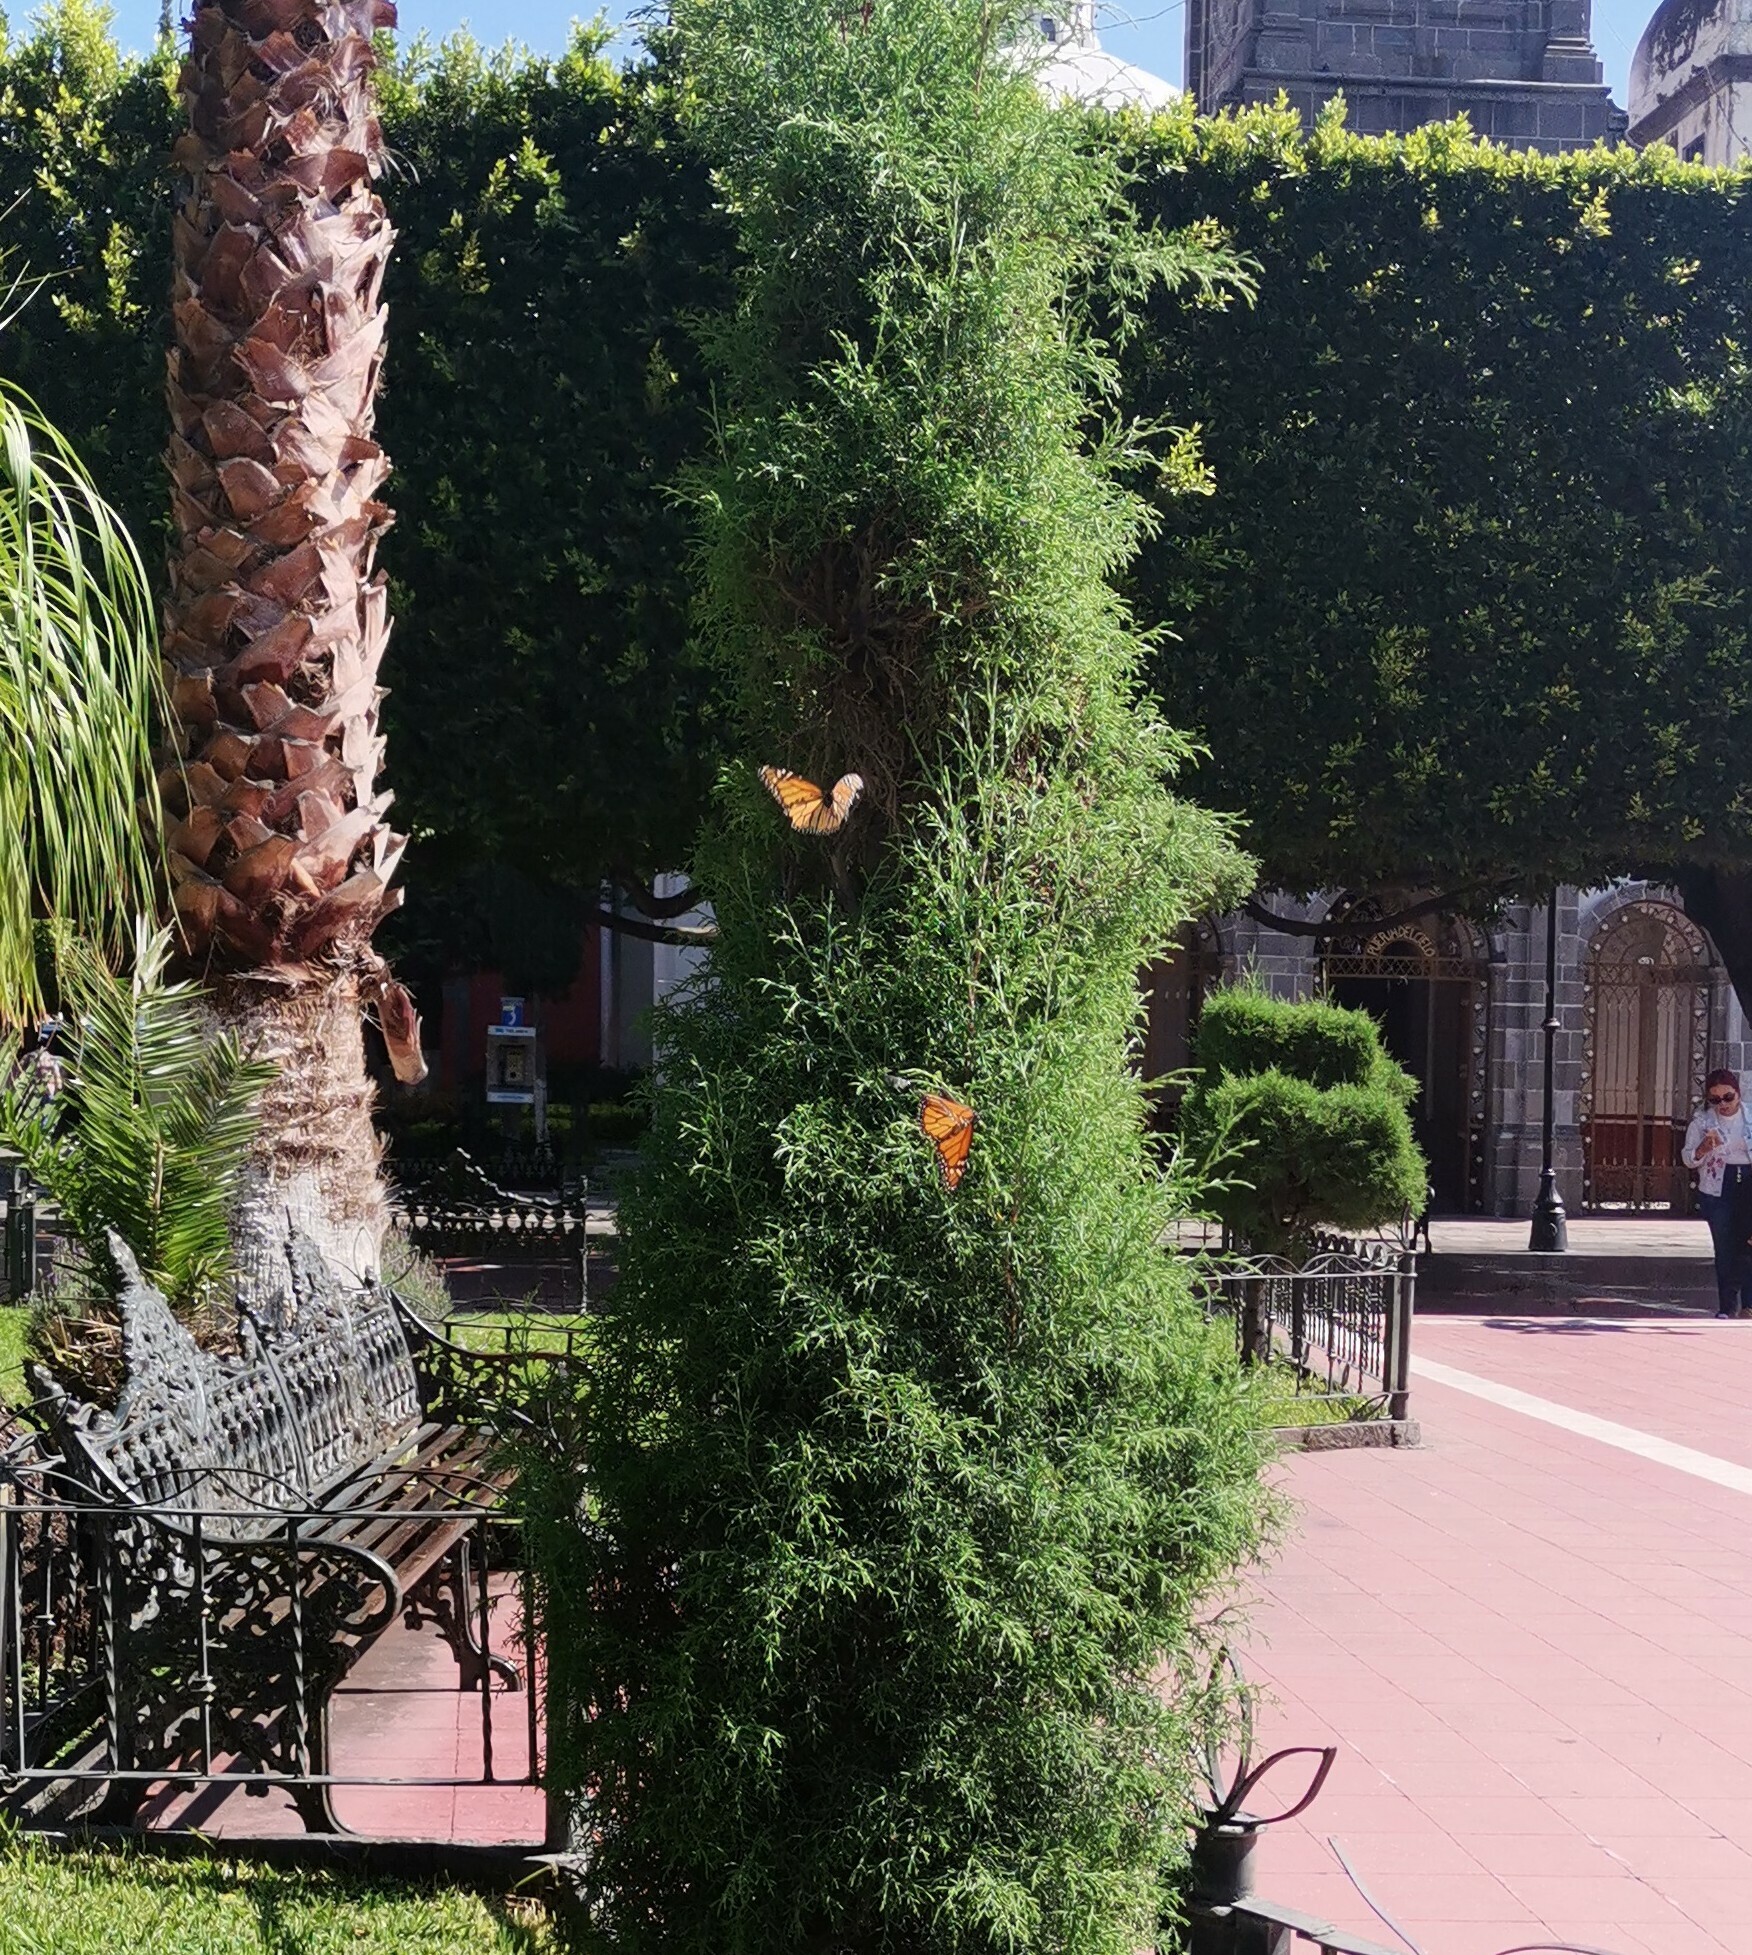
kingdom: Animalia
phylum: Arthropoda
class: Insecta
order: Lepidoptera
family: Nymphalidae
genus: Danaus
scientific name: Danaus plexippus
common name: Monarch
